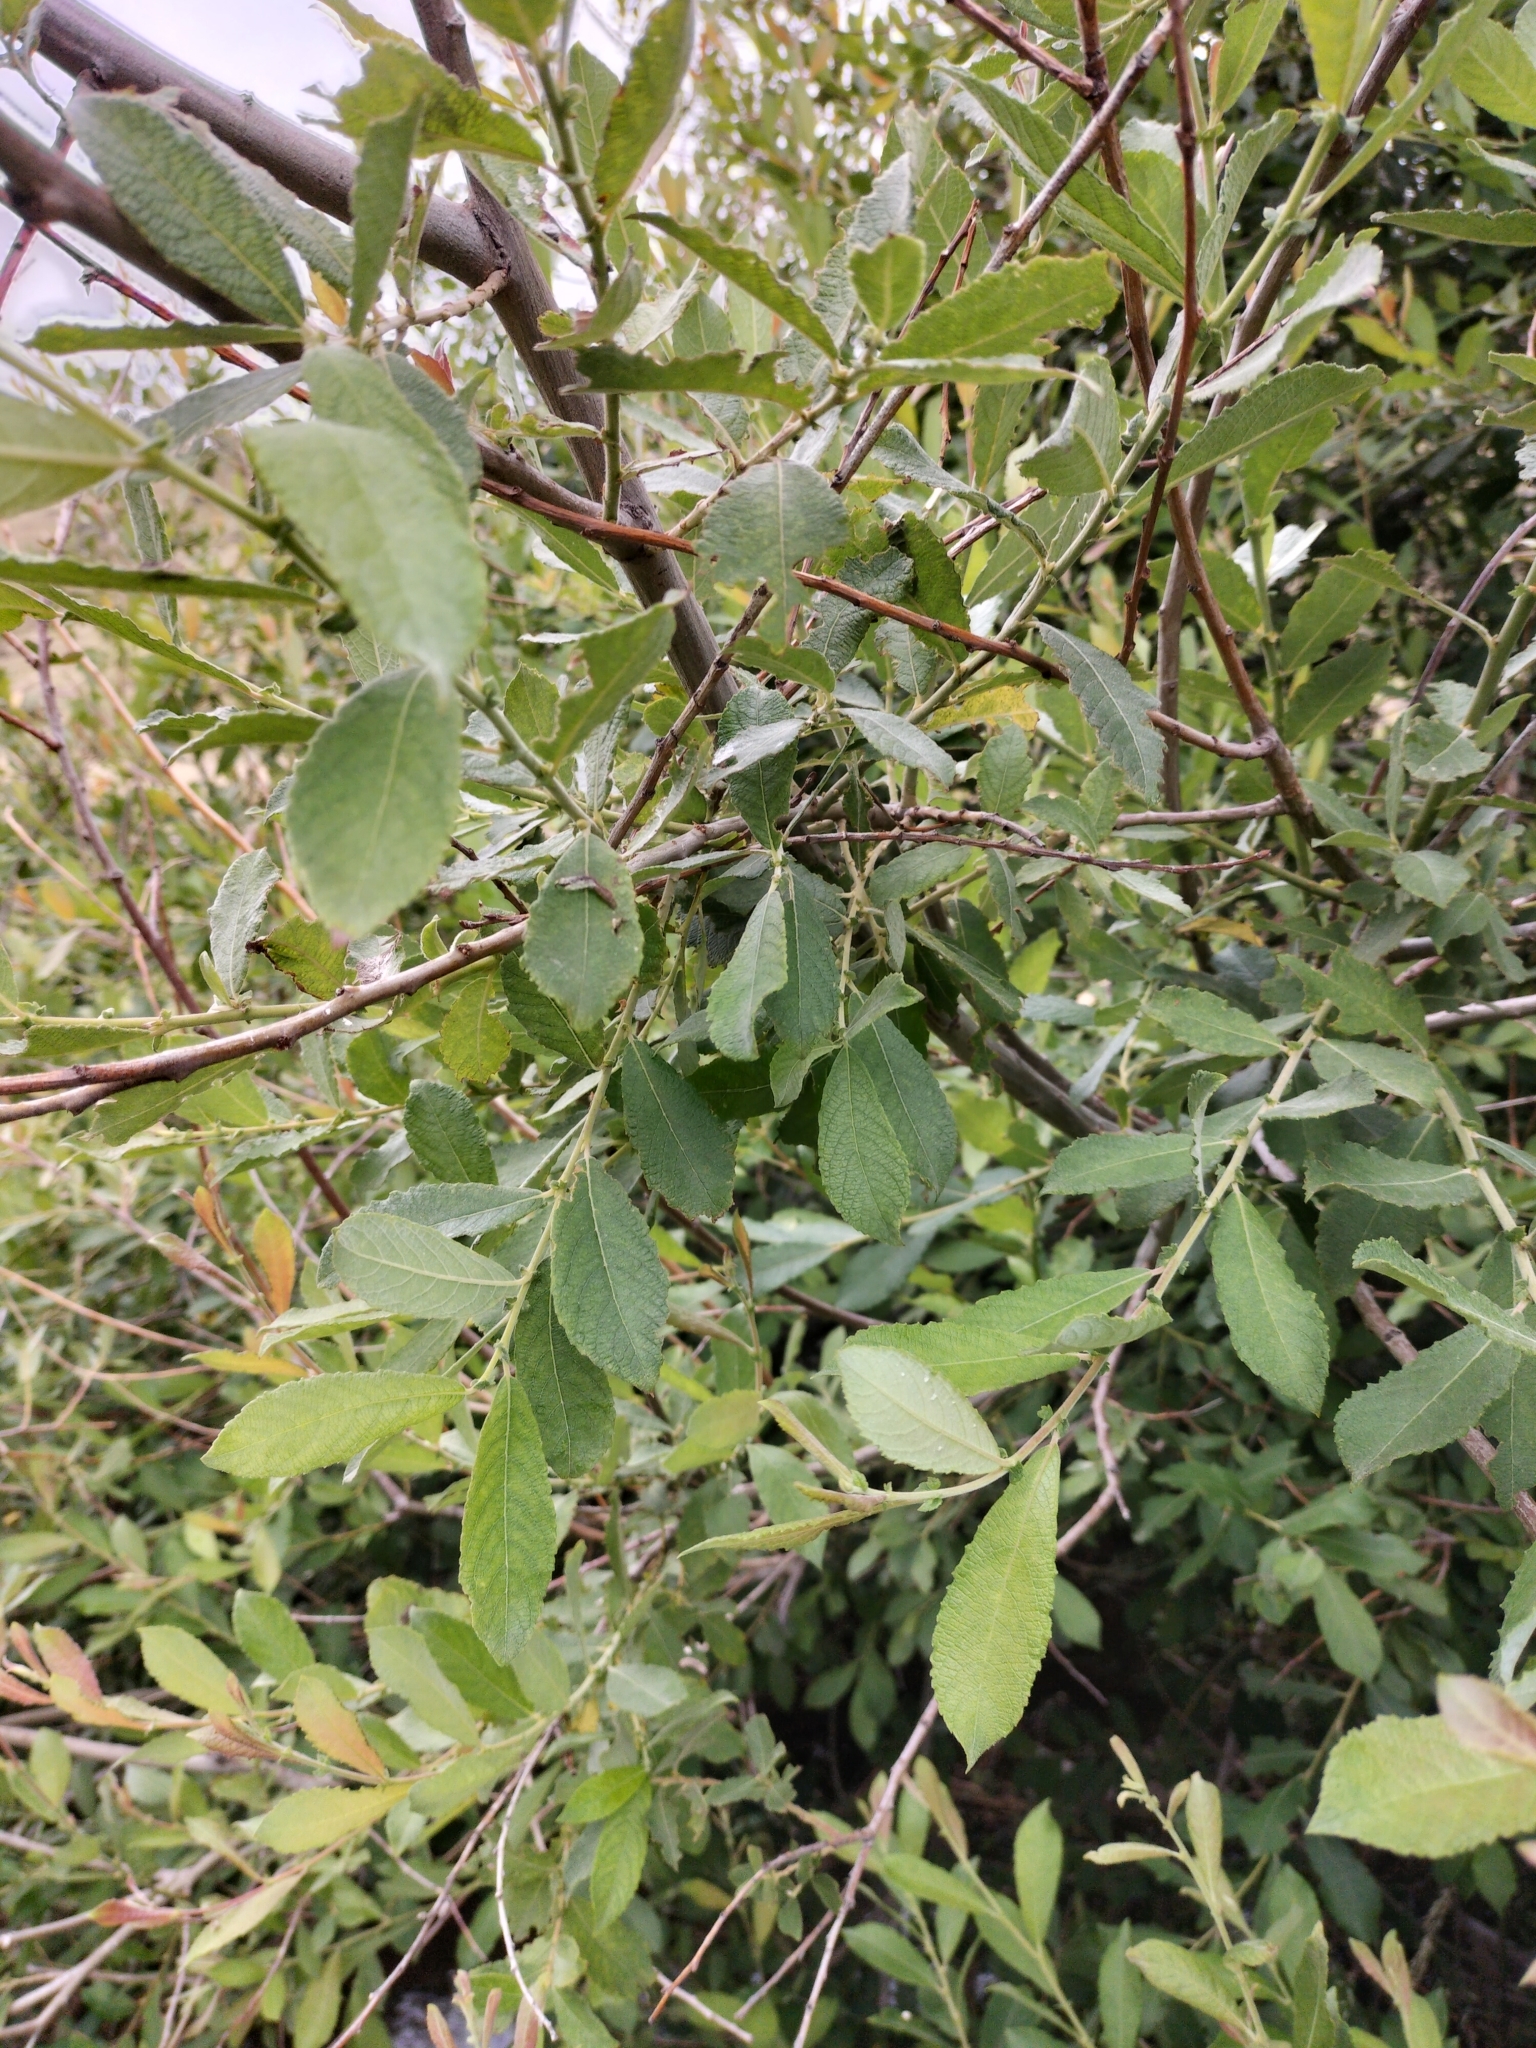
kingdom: Plantae
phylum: Tracheophyta
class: Magnoliopsida
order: Malpighiales
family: Salicaceae
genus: Salix
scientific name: Salix cinerea
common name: Common sallow
